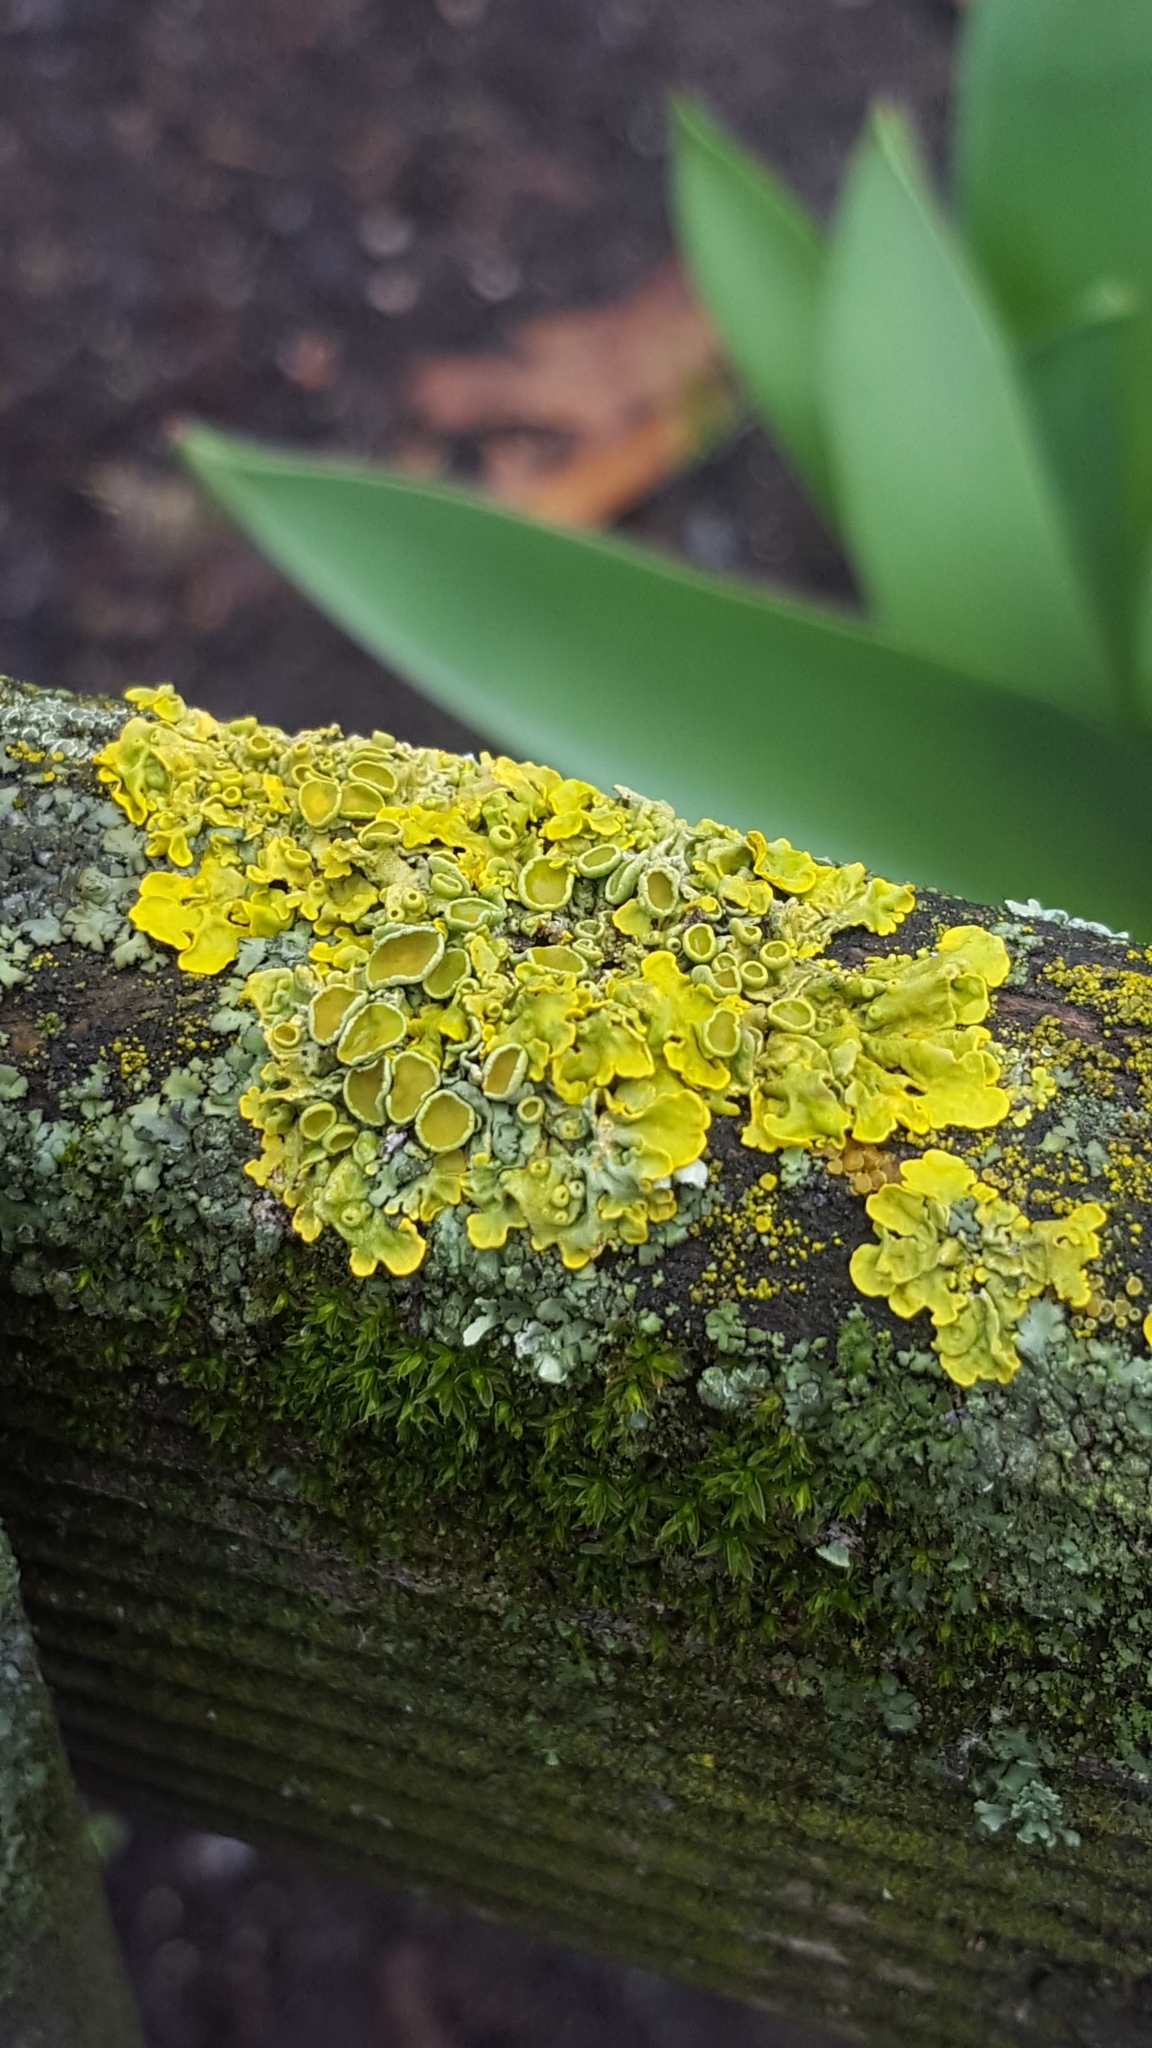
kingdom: Fungi
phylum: Ascomycota
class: Lecanoromycetes
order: Teloschistales
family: Teloschistaceae
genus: Xanthoria
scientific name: Xanthoria parietina
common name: Common orange lichen
